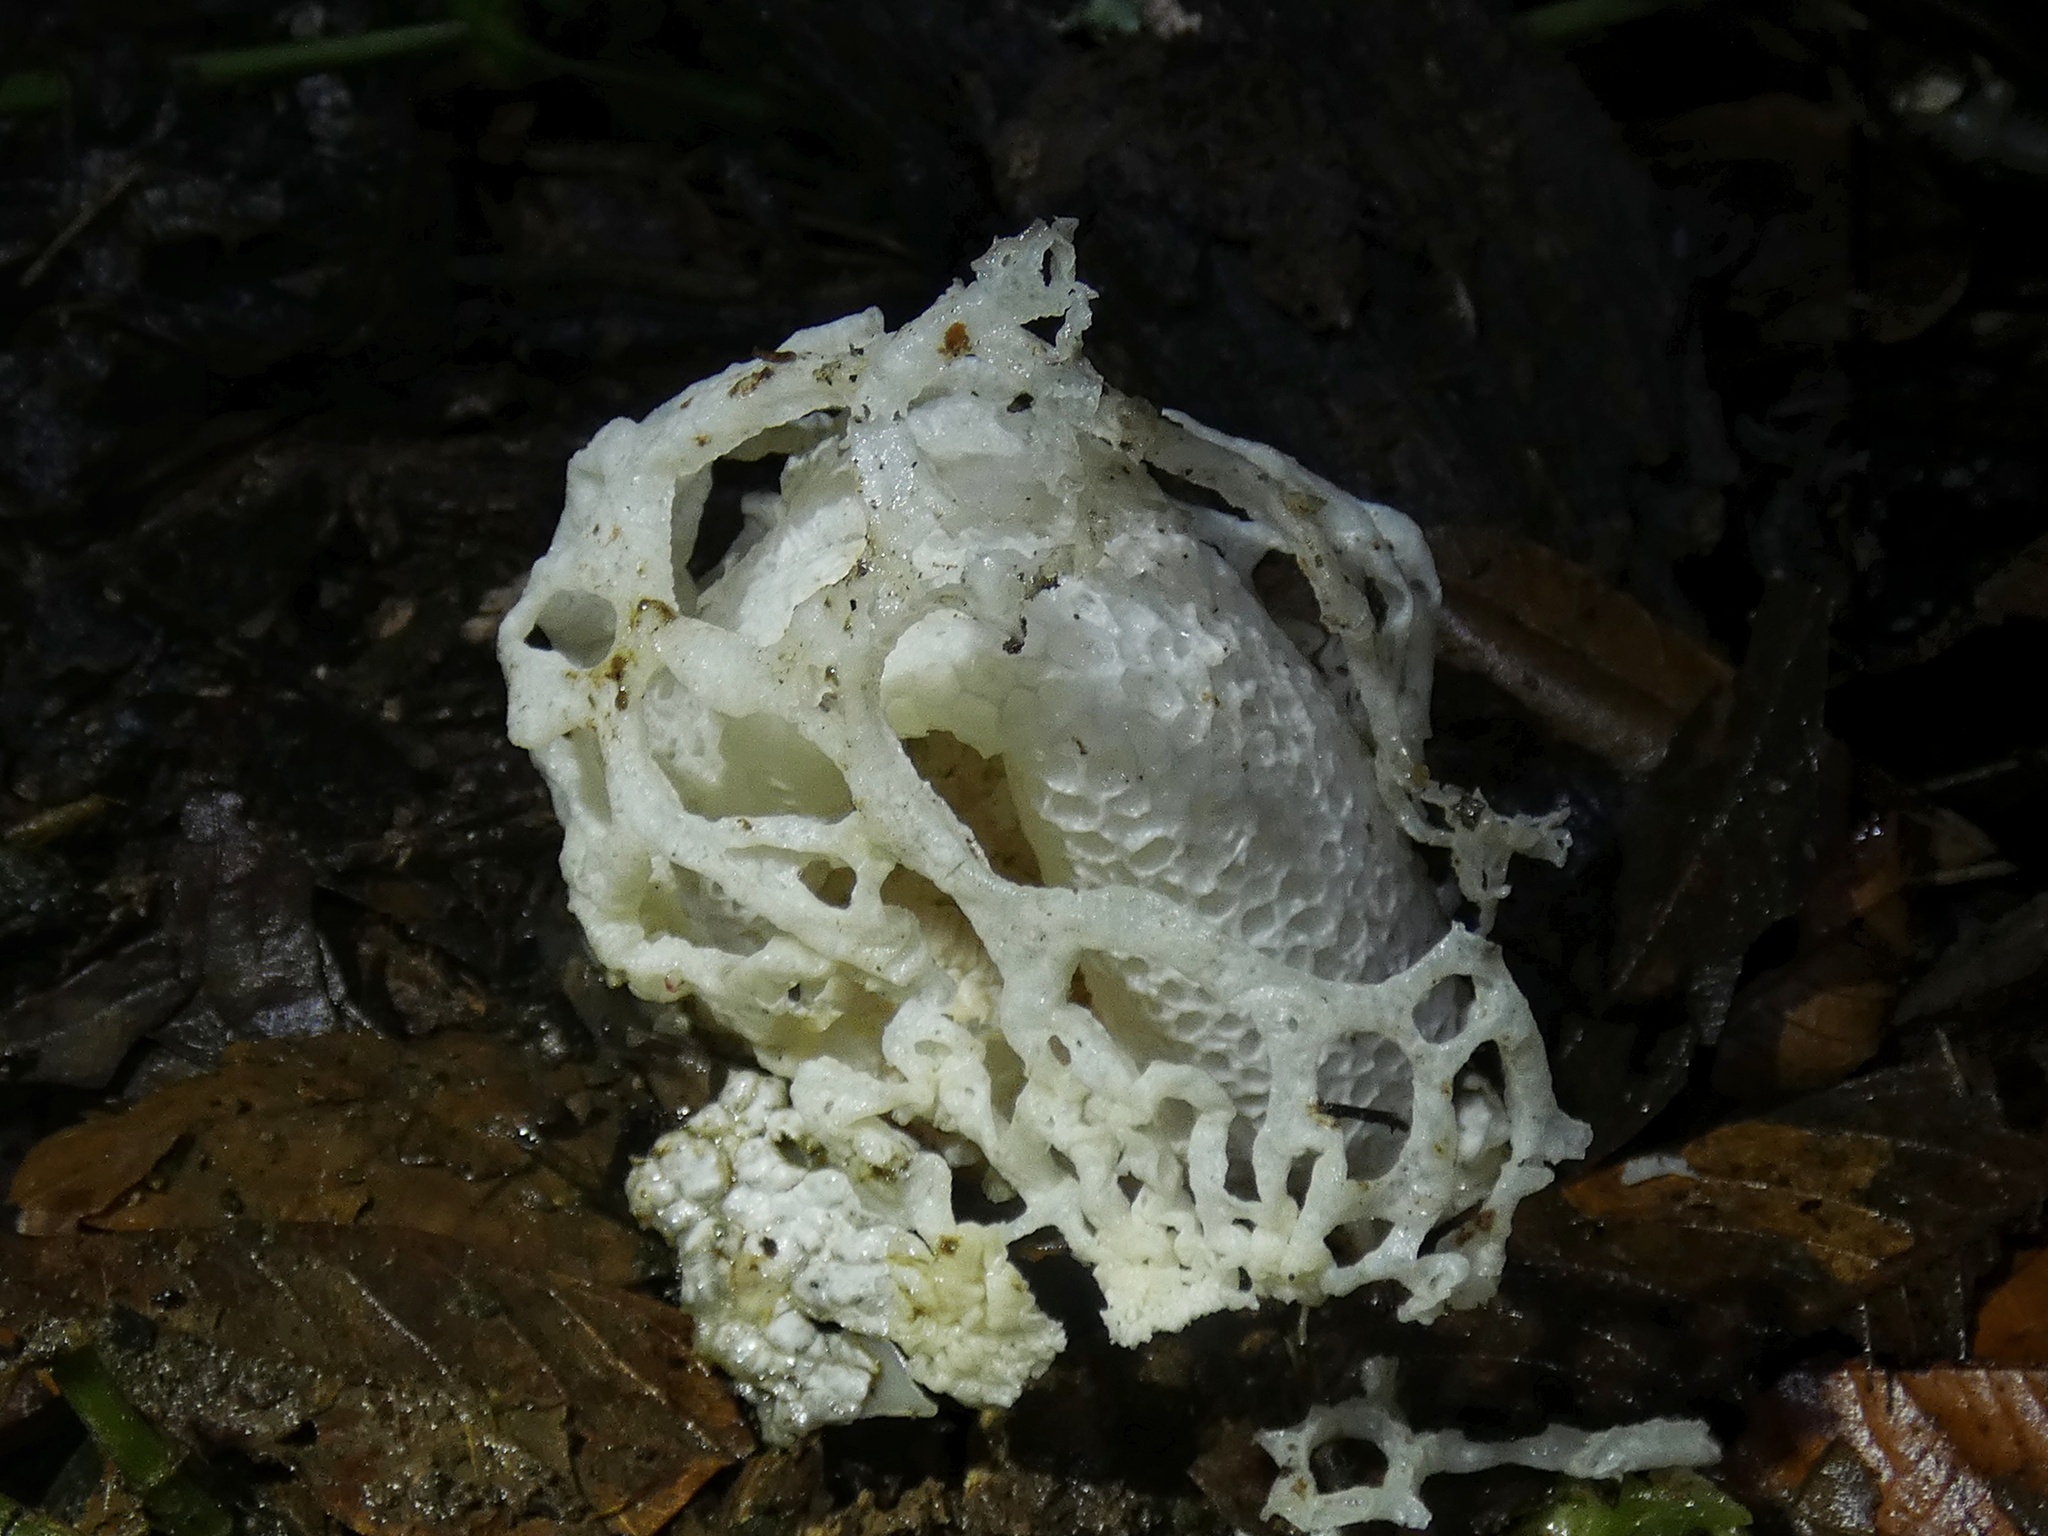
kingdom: Fungi
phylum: Basidiomycota
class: Agaricomycetes
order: Phallales
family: Phallaceae
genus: Phallus
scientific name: Phallus merulinus
